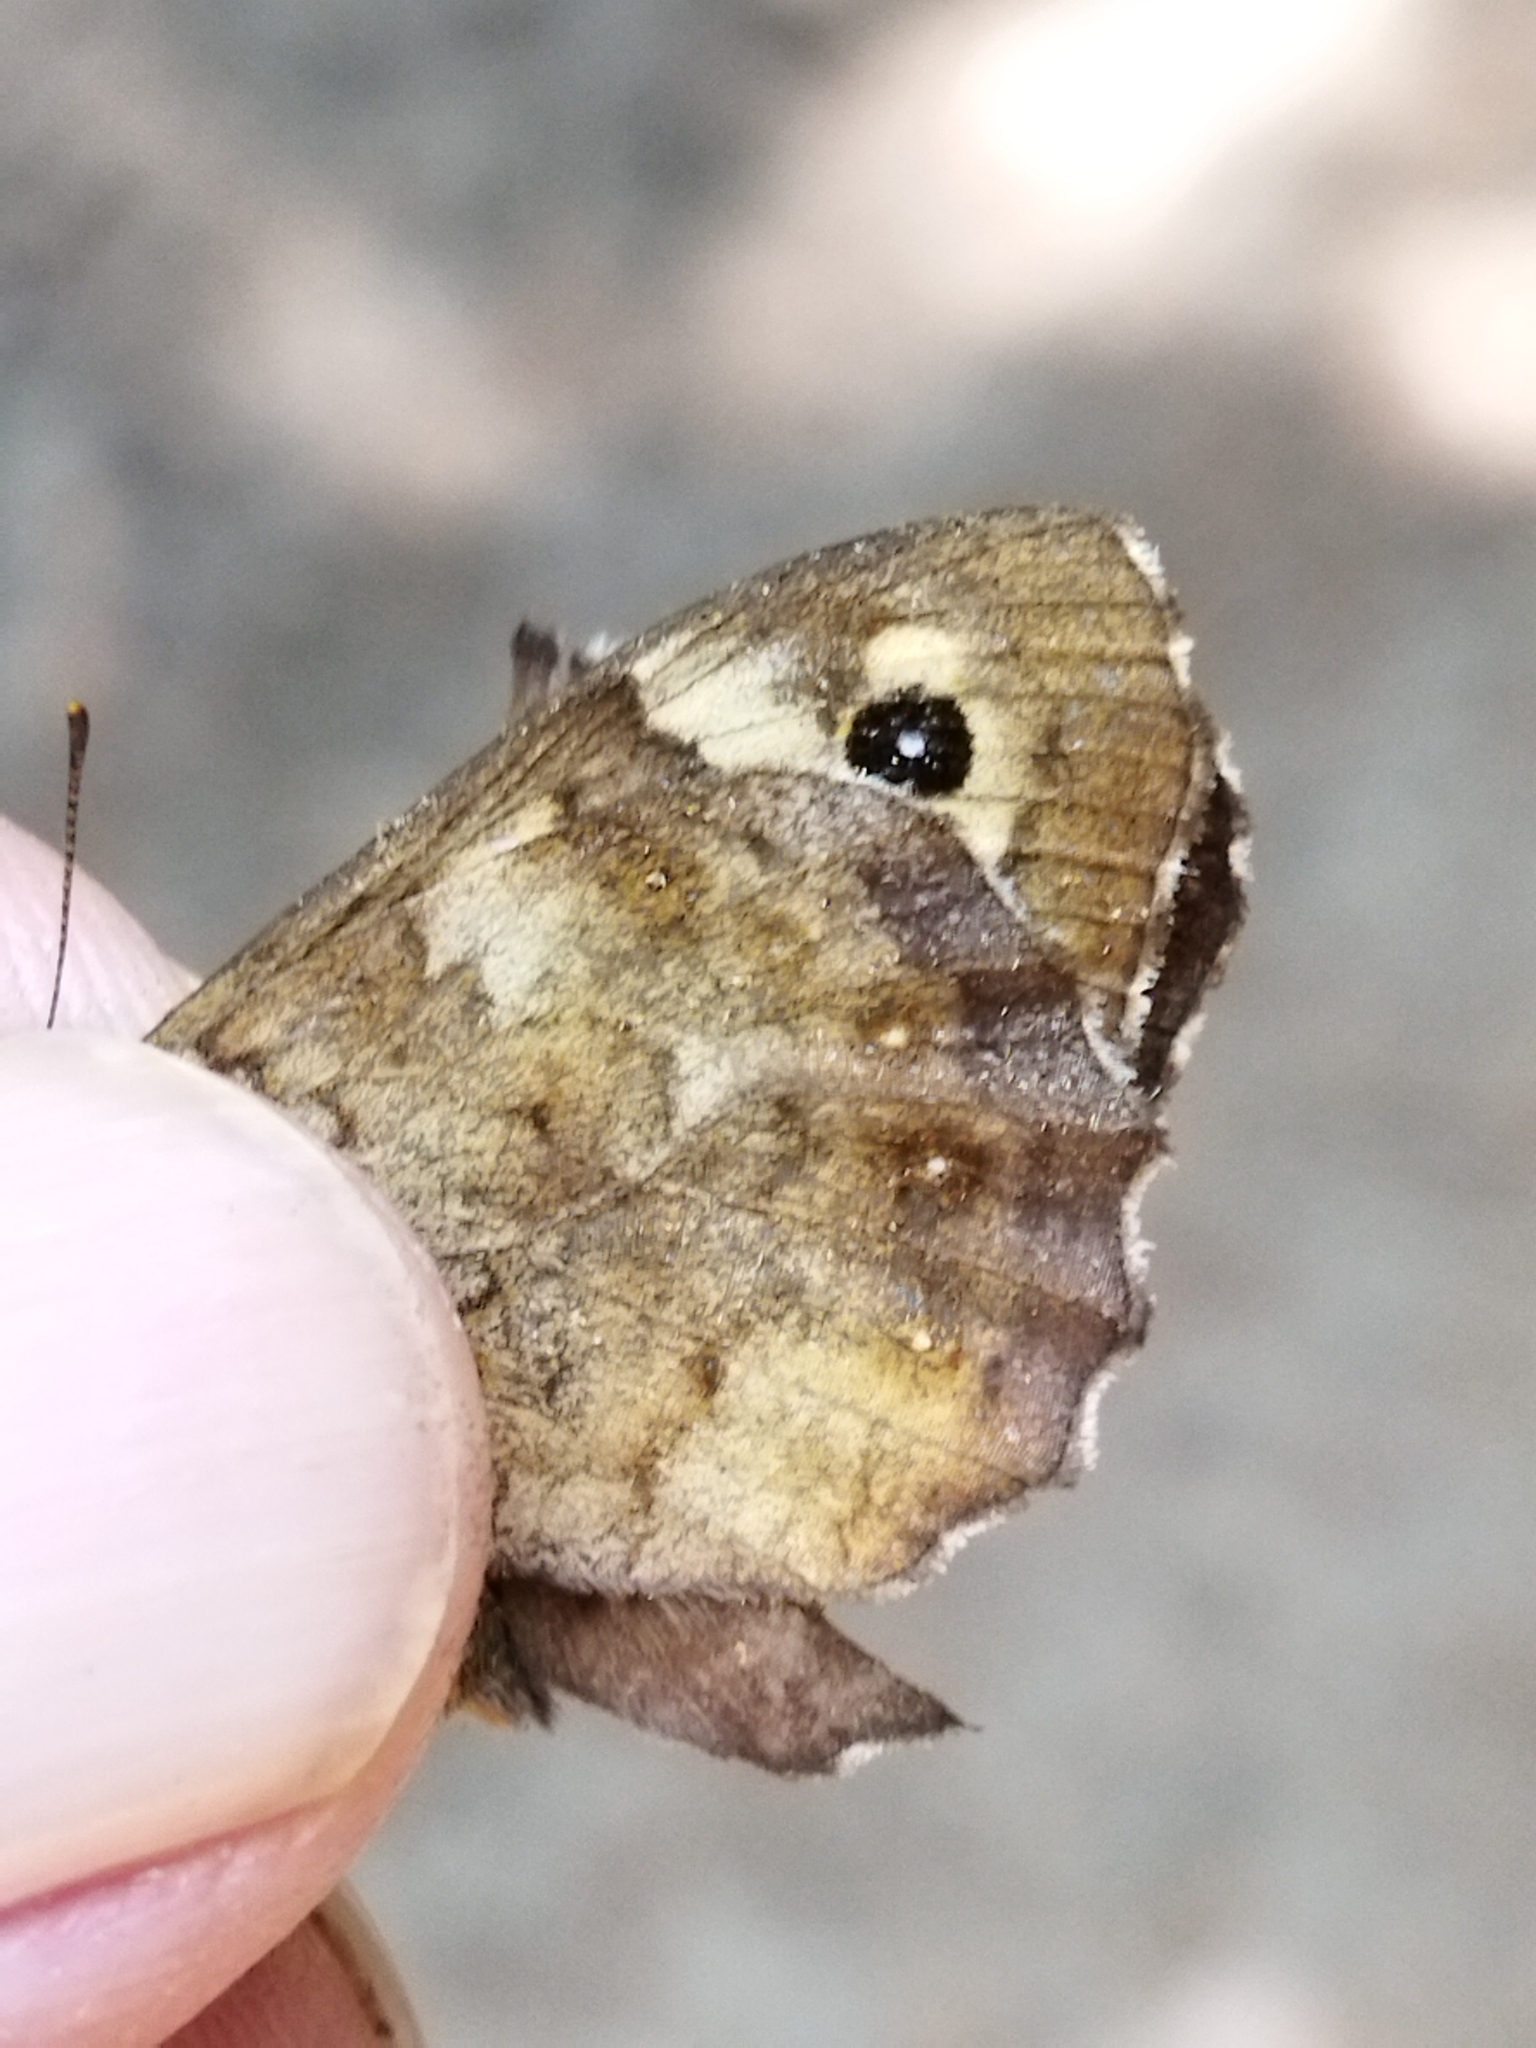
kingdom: Animalia
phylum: Arthropoda
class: Insecta
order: Lepidoptera
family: Nymphalidae
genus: Pararge
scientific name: Pararge aegeria
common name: Speckled wood
